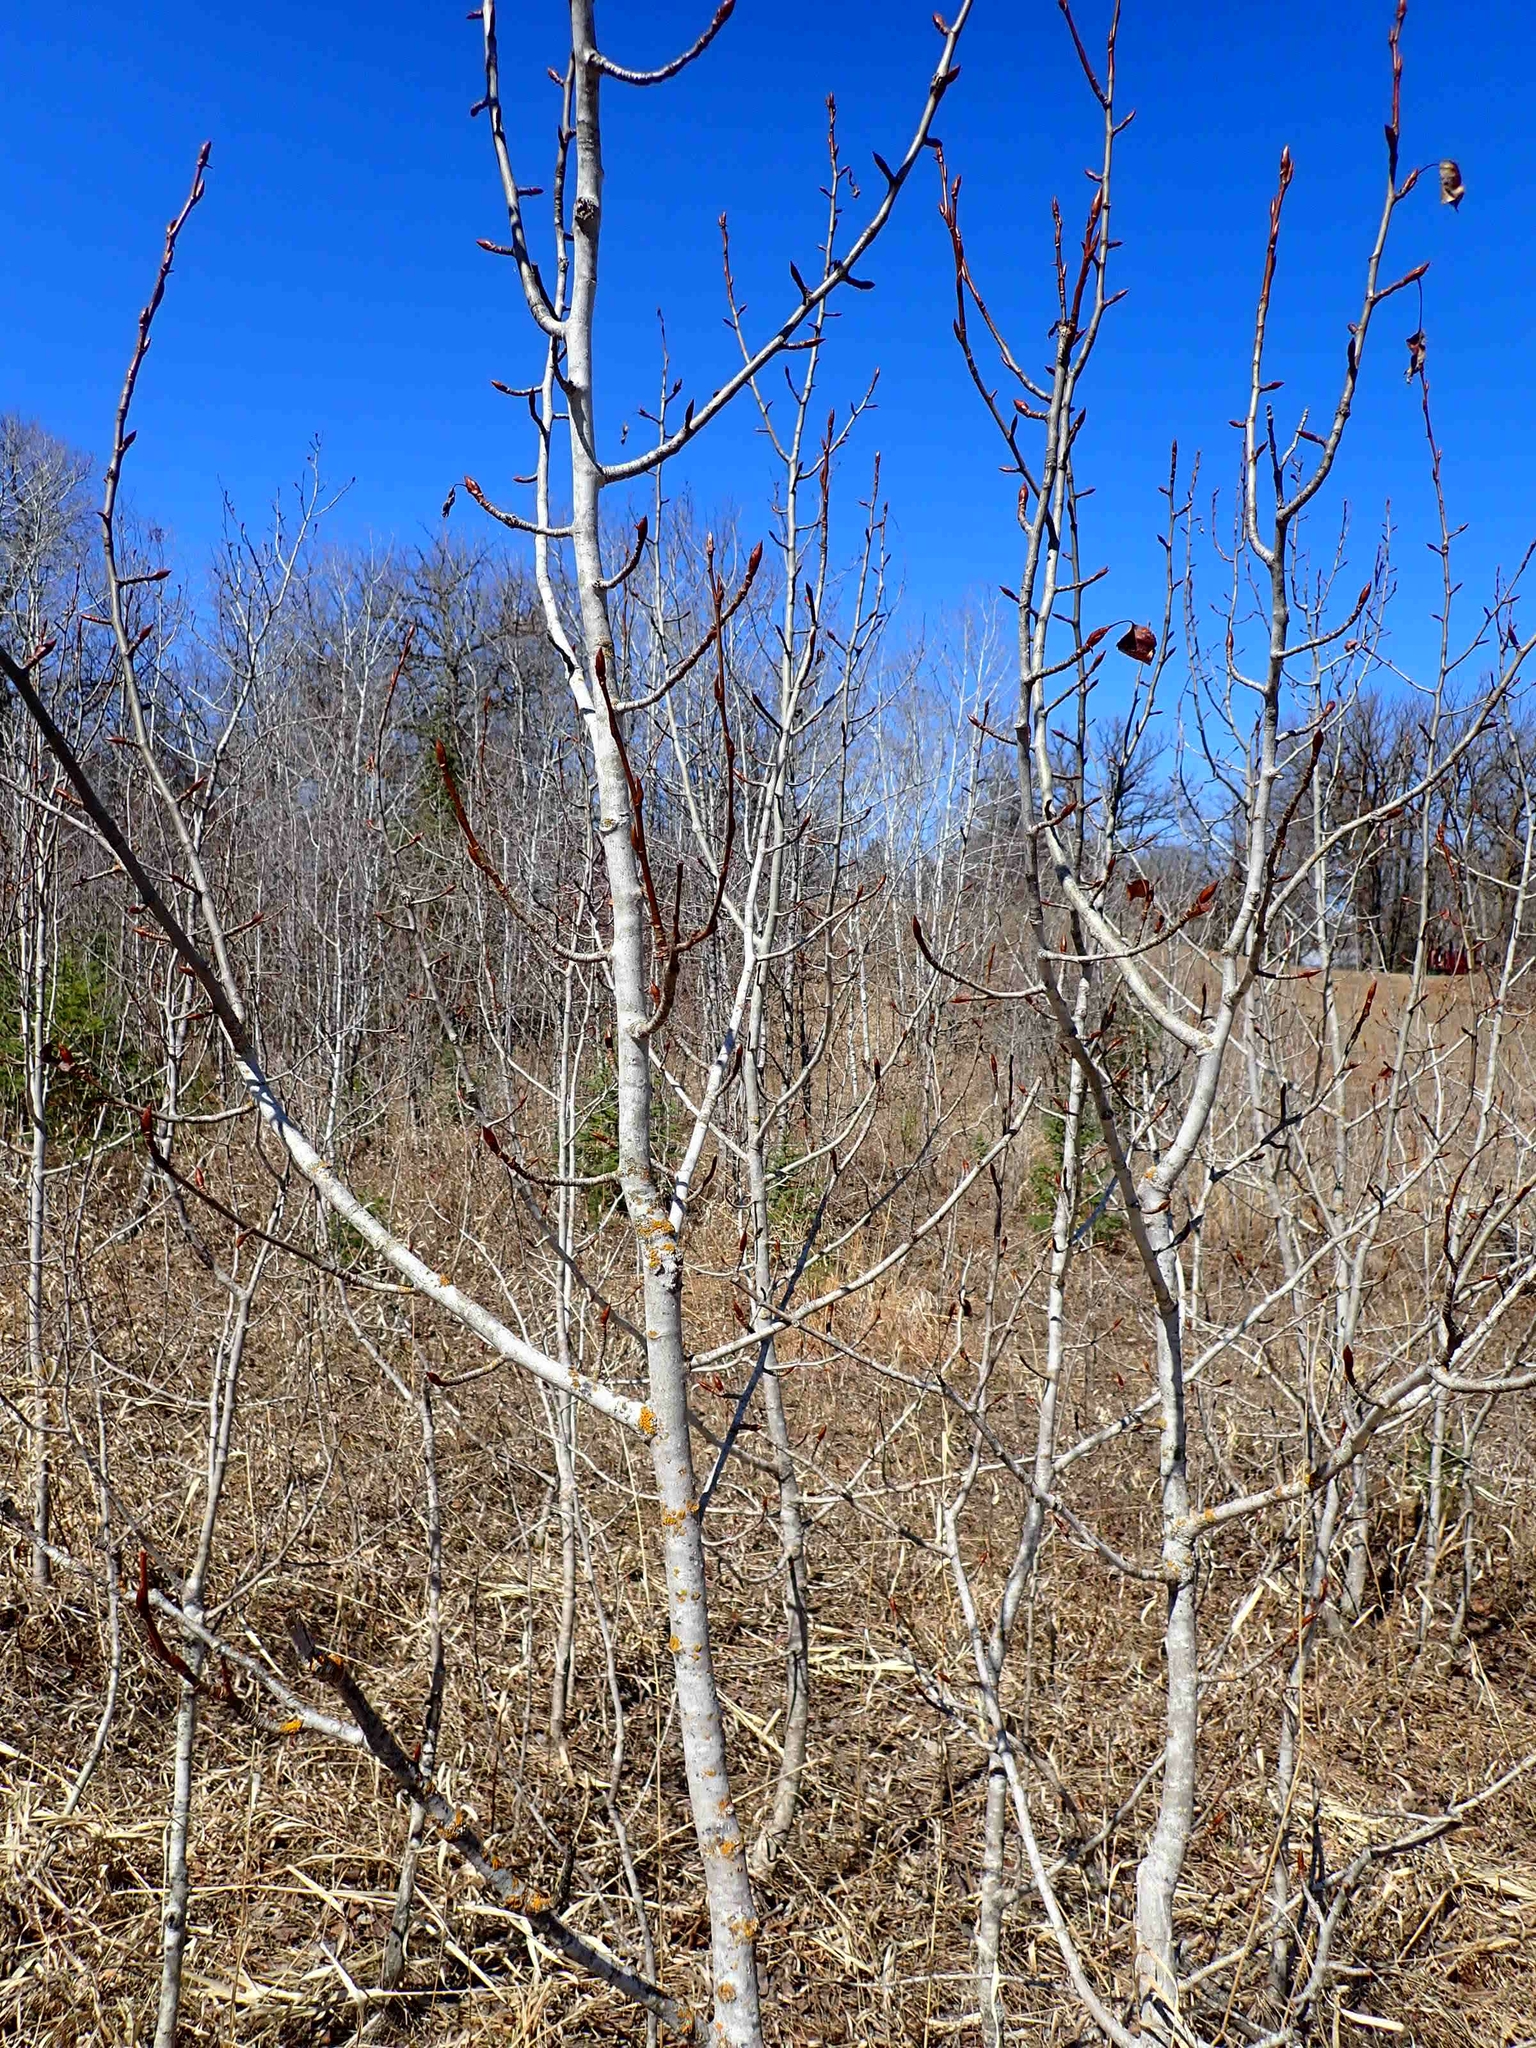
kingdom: Plantae
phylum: Tracheophyta
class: Magnoliopsida
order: Malpighiales
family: Salicaceae
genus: Populus
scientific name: Populus balsamifera
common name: Balsam poplar
